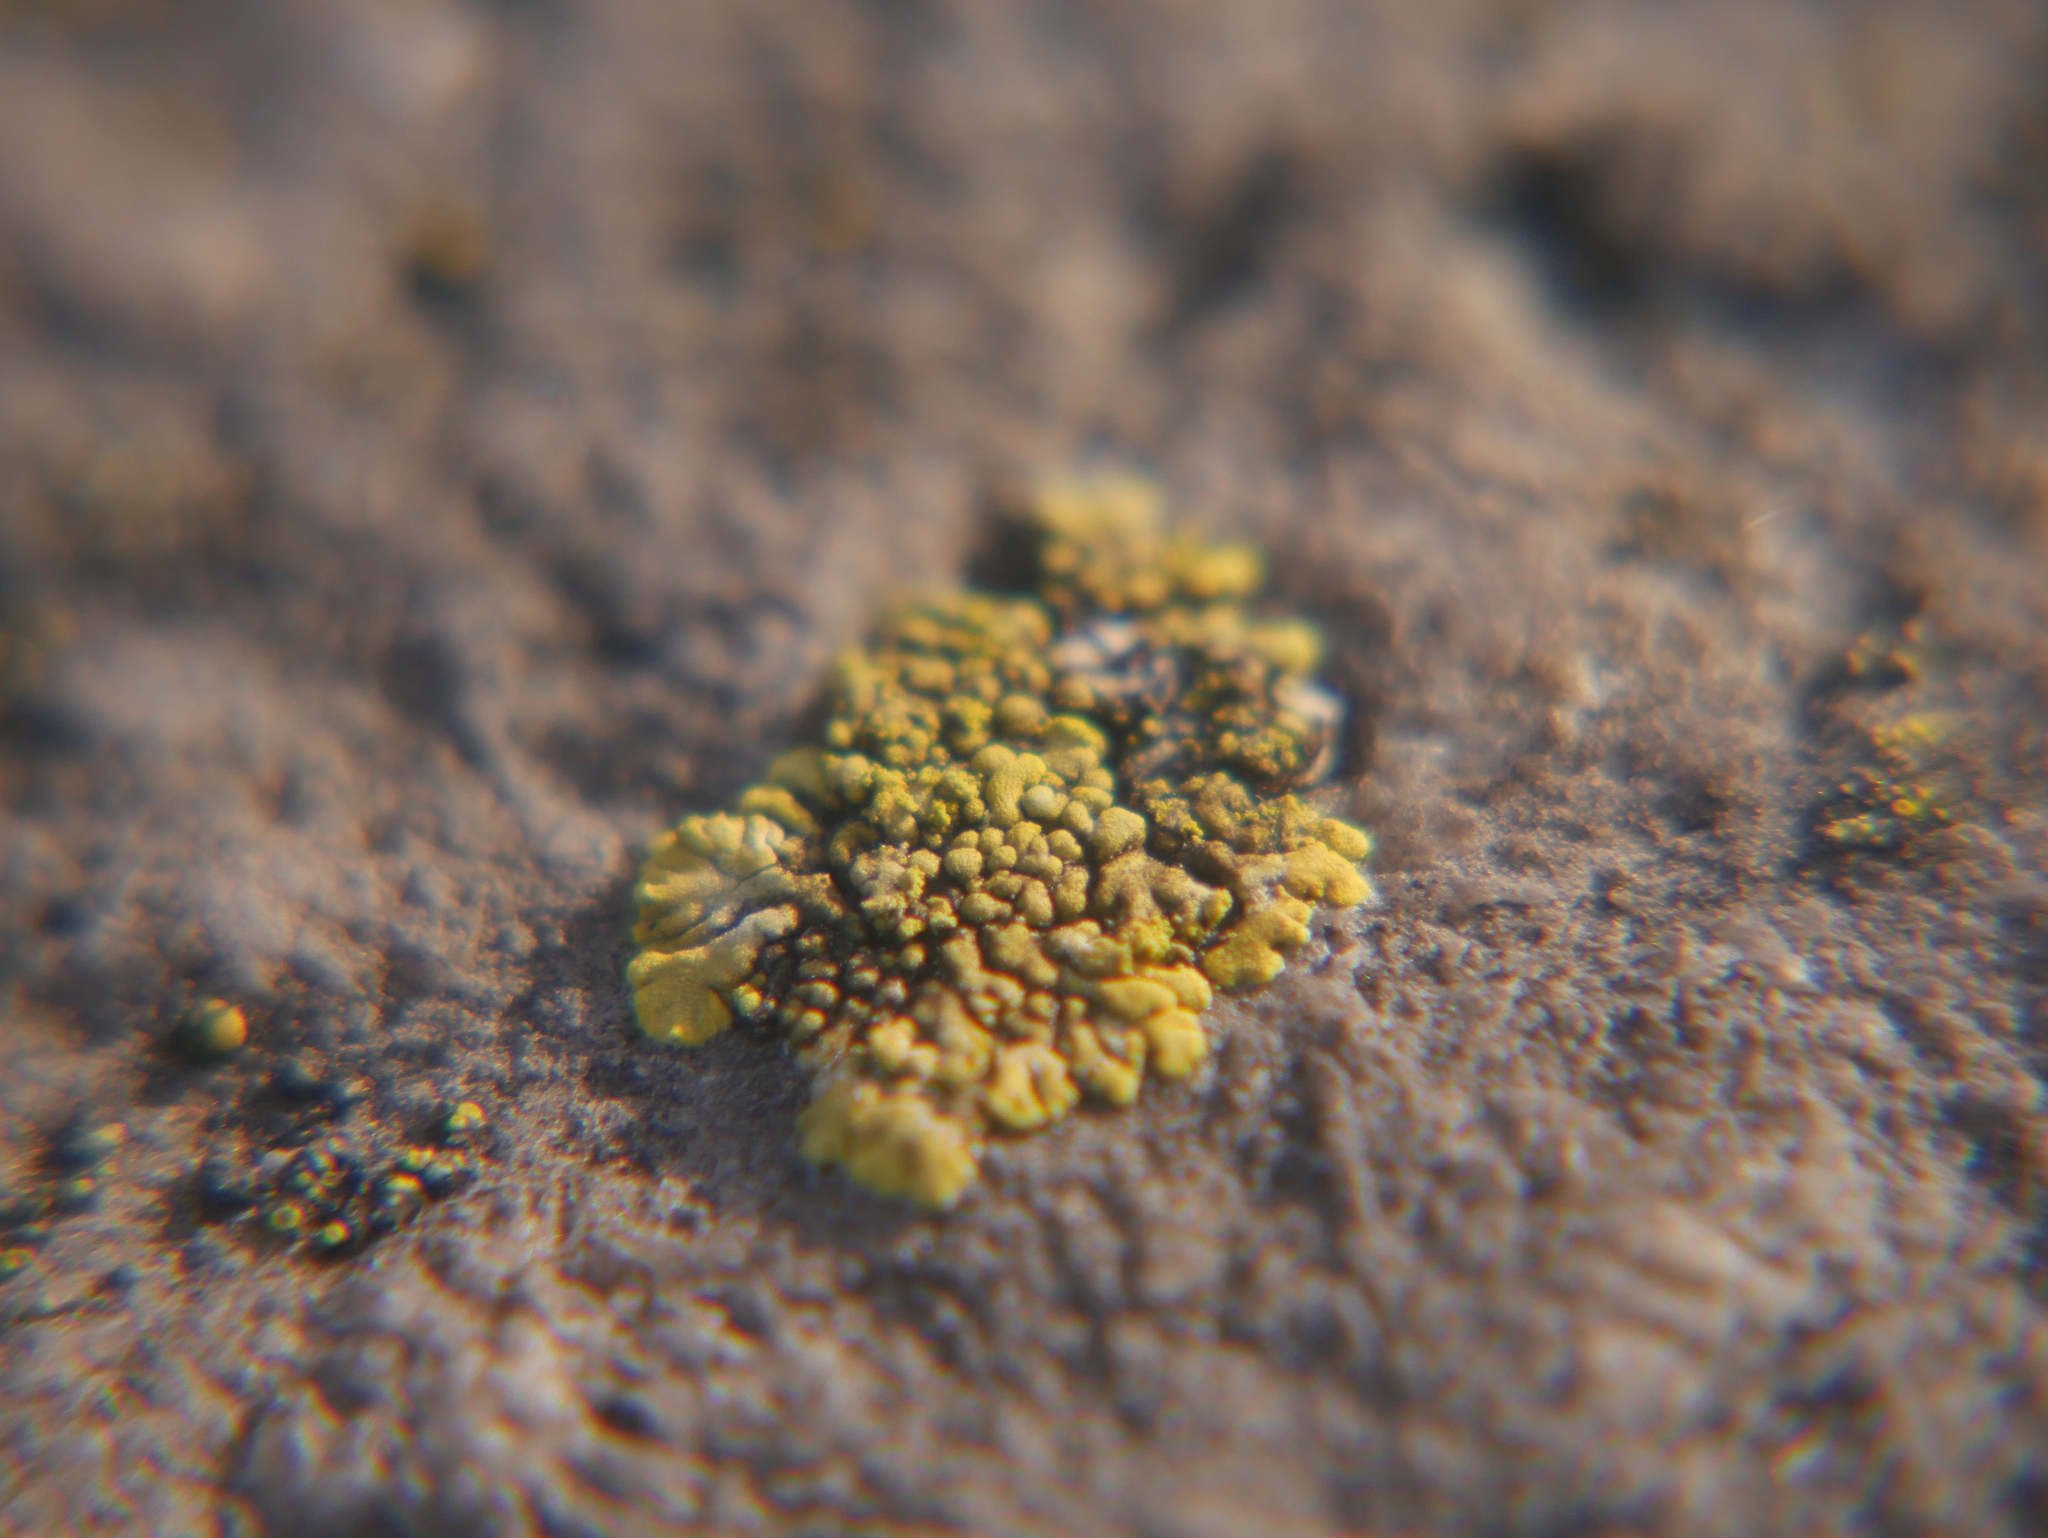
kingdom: Fungi
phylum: Ascomycota
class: Lecanoromycetes
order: Teloschistales
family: Teloschistaceae
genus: Calogaya
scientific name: Calogaya decipiens
